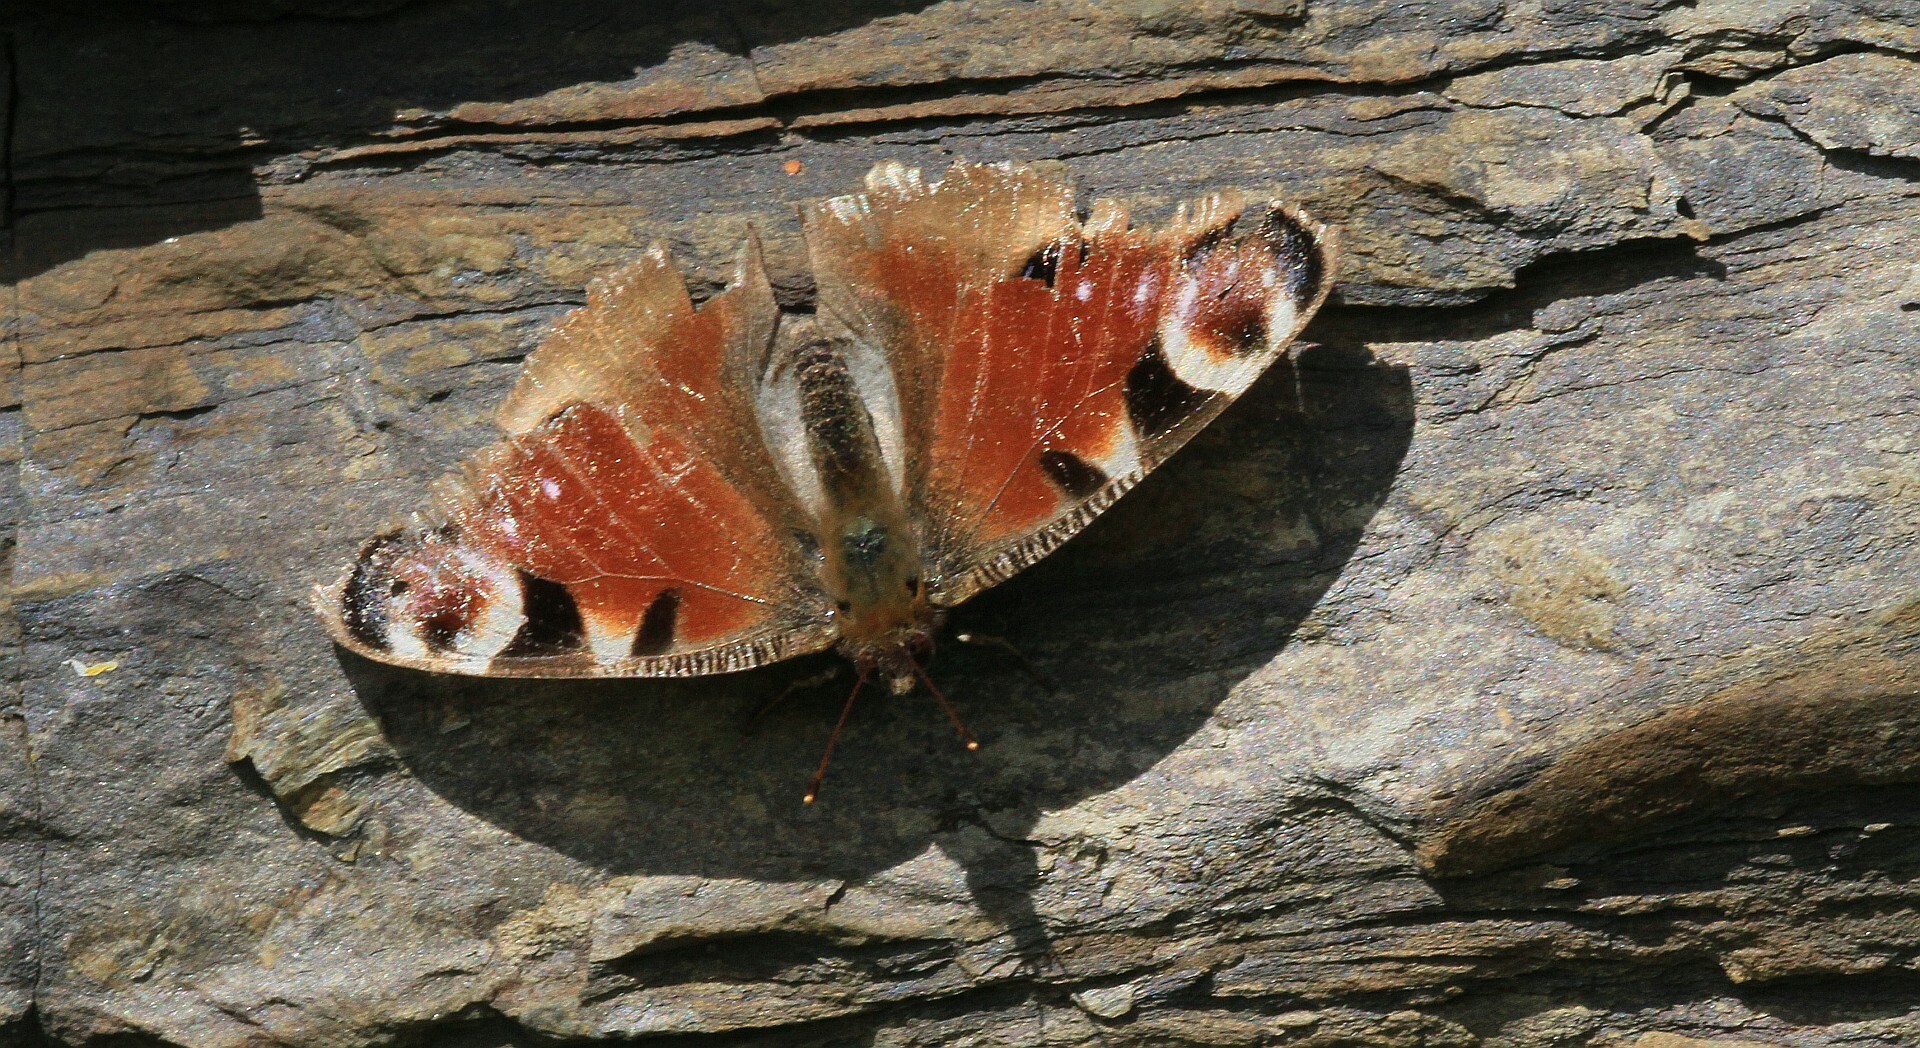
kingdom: Animalia
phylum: Arthropoda
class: Insecta
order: Lepidoptera
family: Nymphalidae
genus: Aglais
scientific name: Aglais io
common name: Peacock
